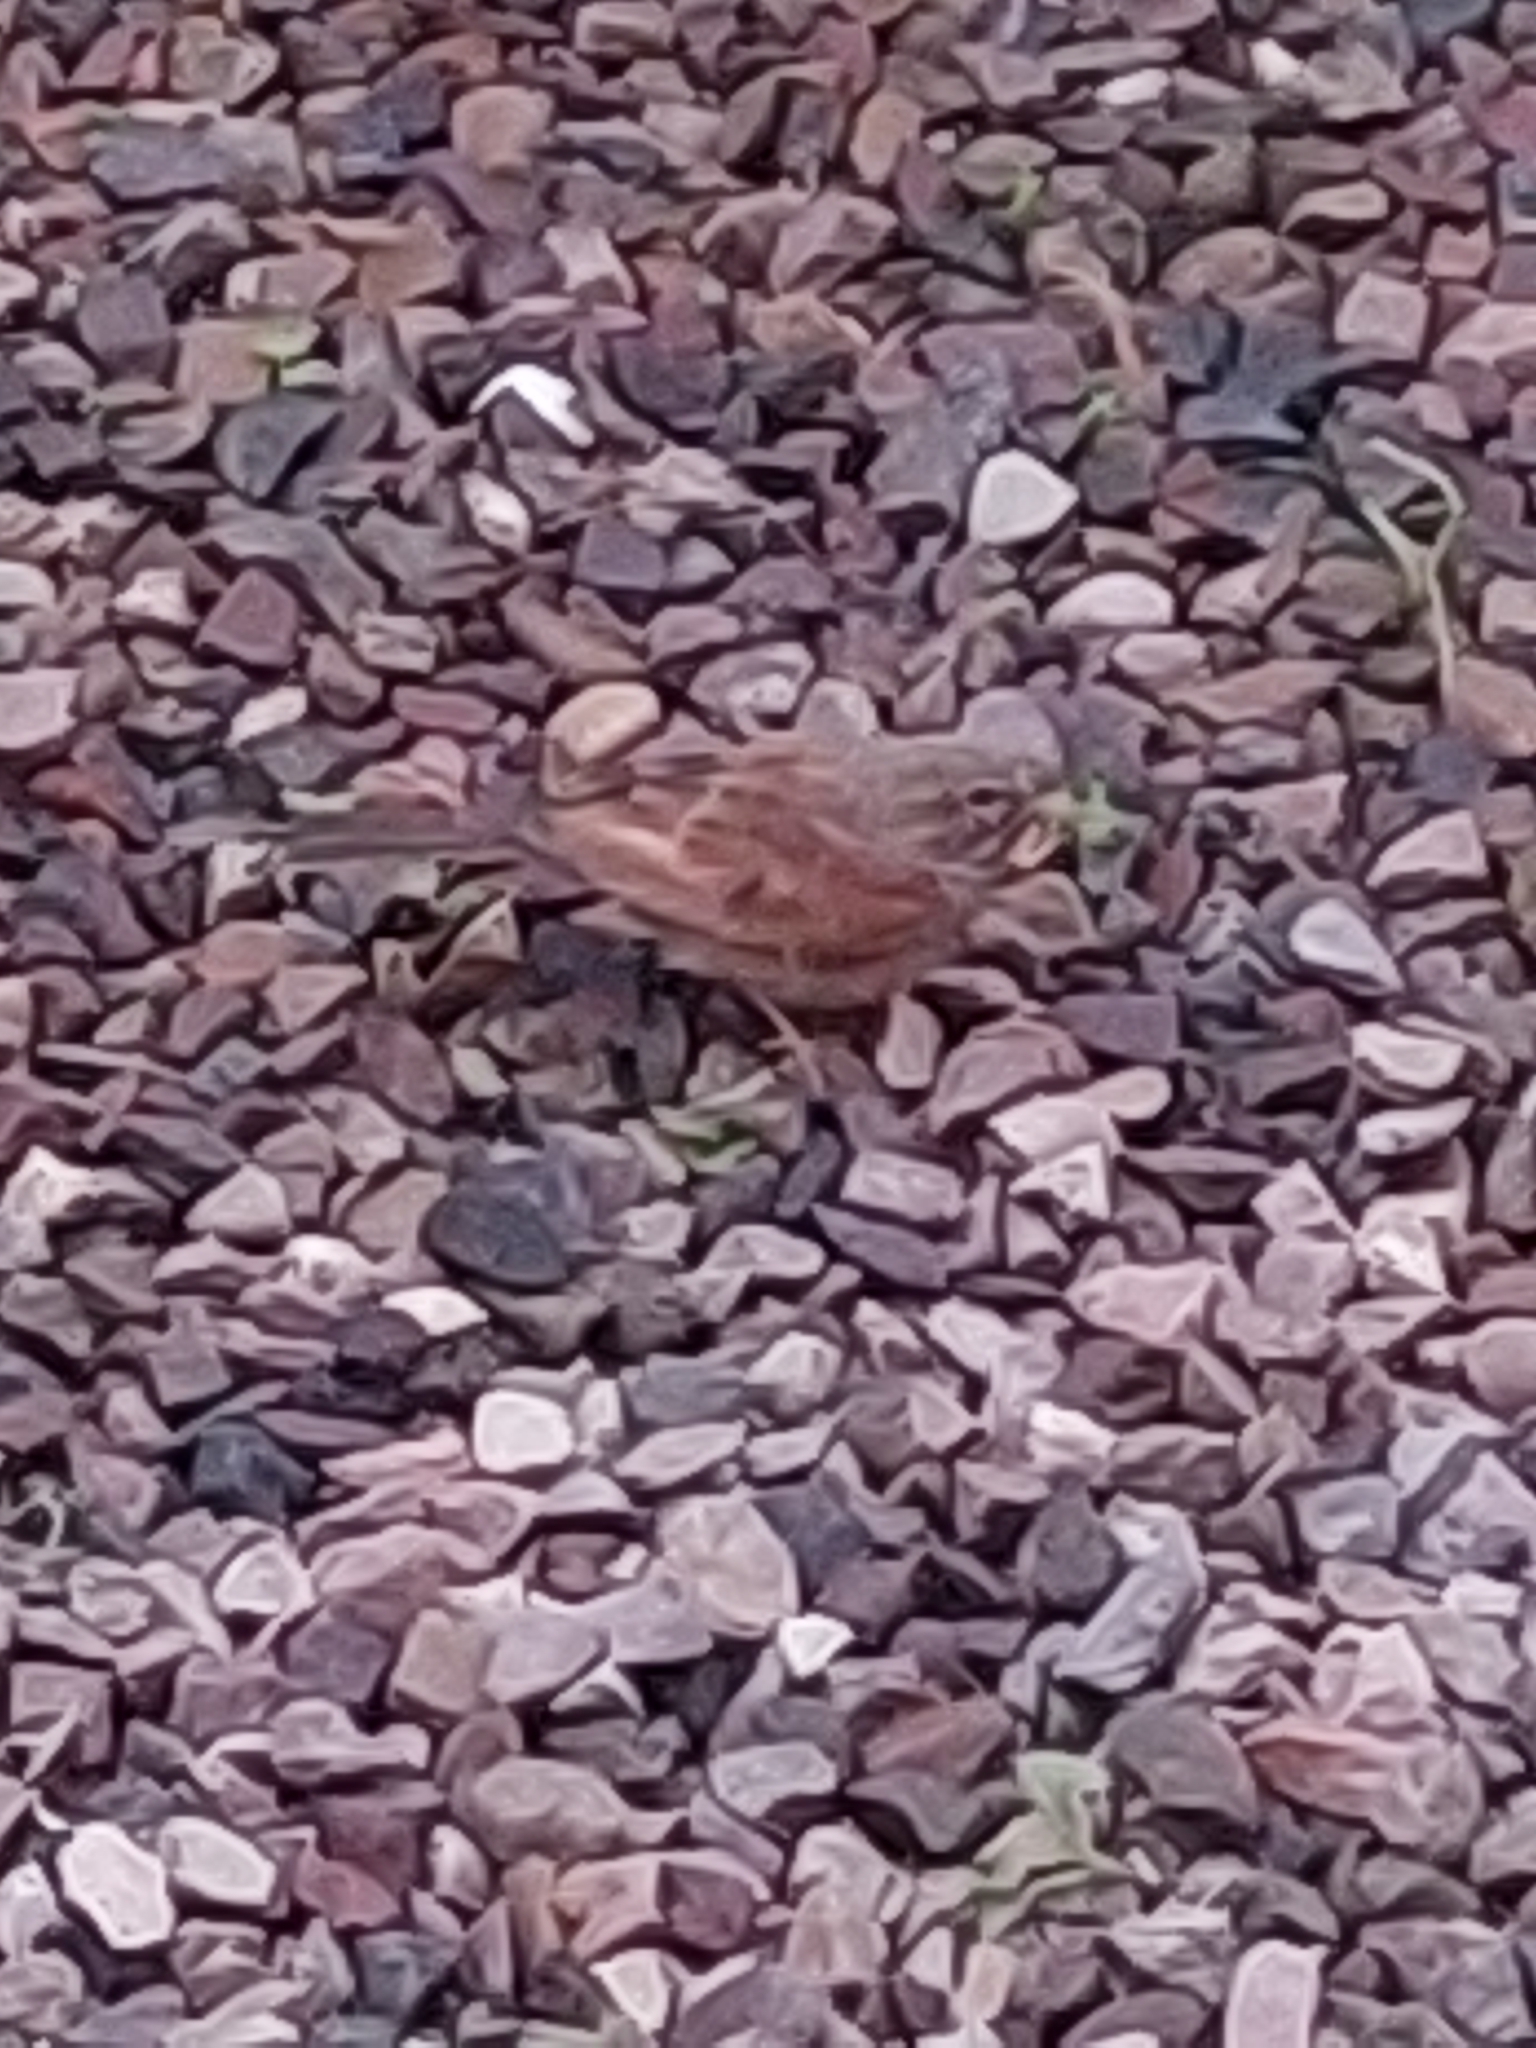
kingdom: Animalia
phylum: Chordata
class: Aves
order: Passeriformes
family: Emberizidae
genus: Emberiza
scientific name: Emberiza sahari
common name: House bunting
